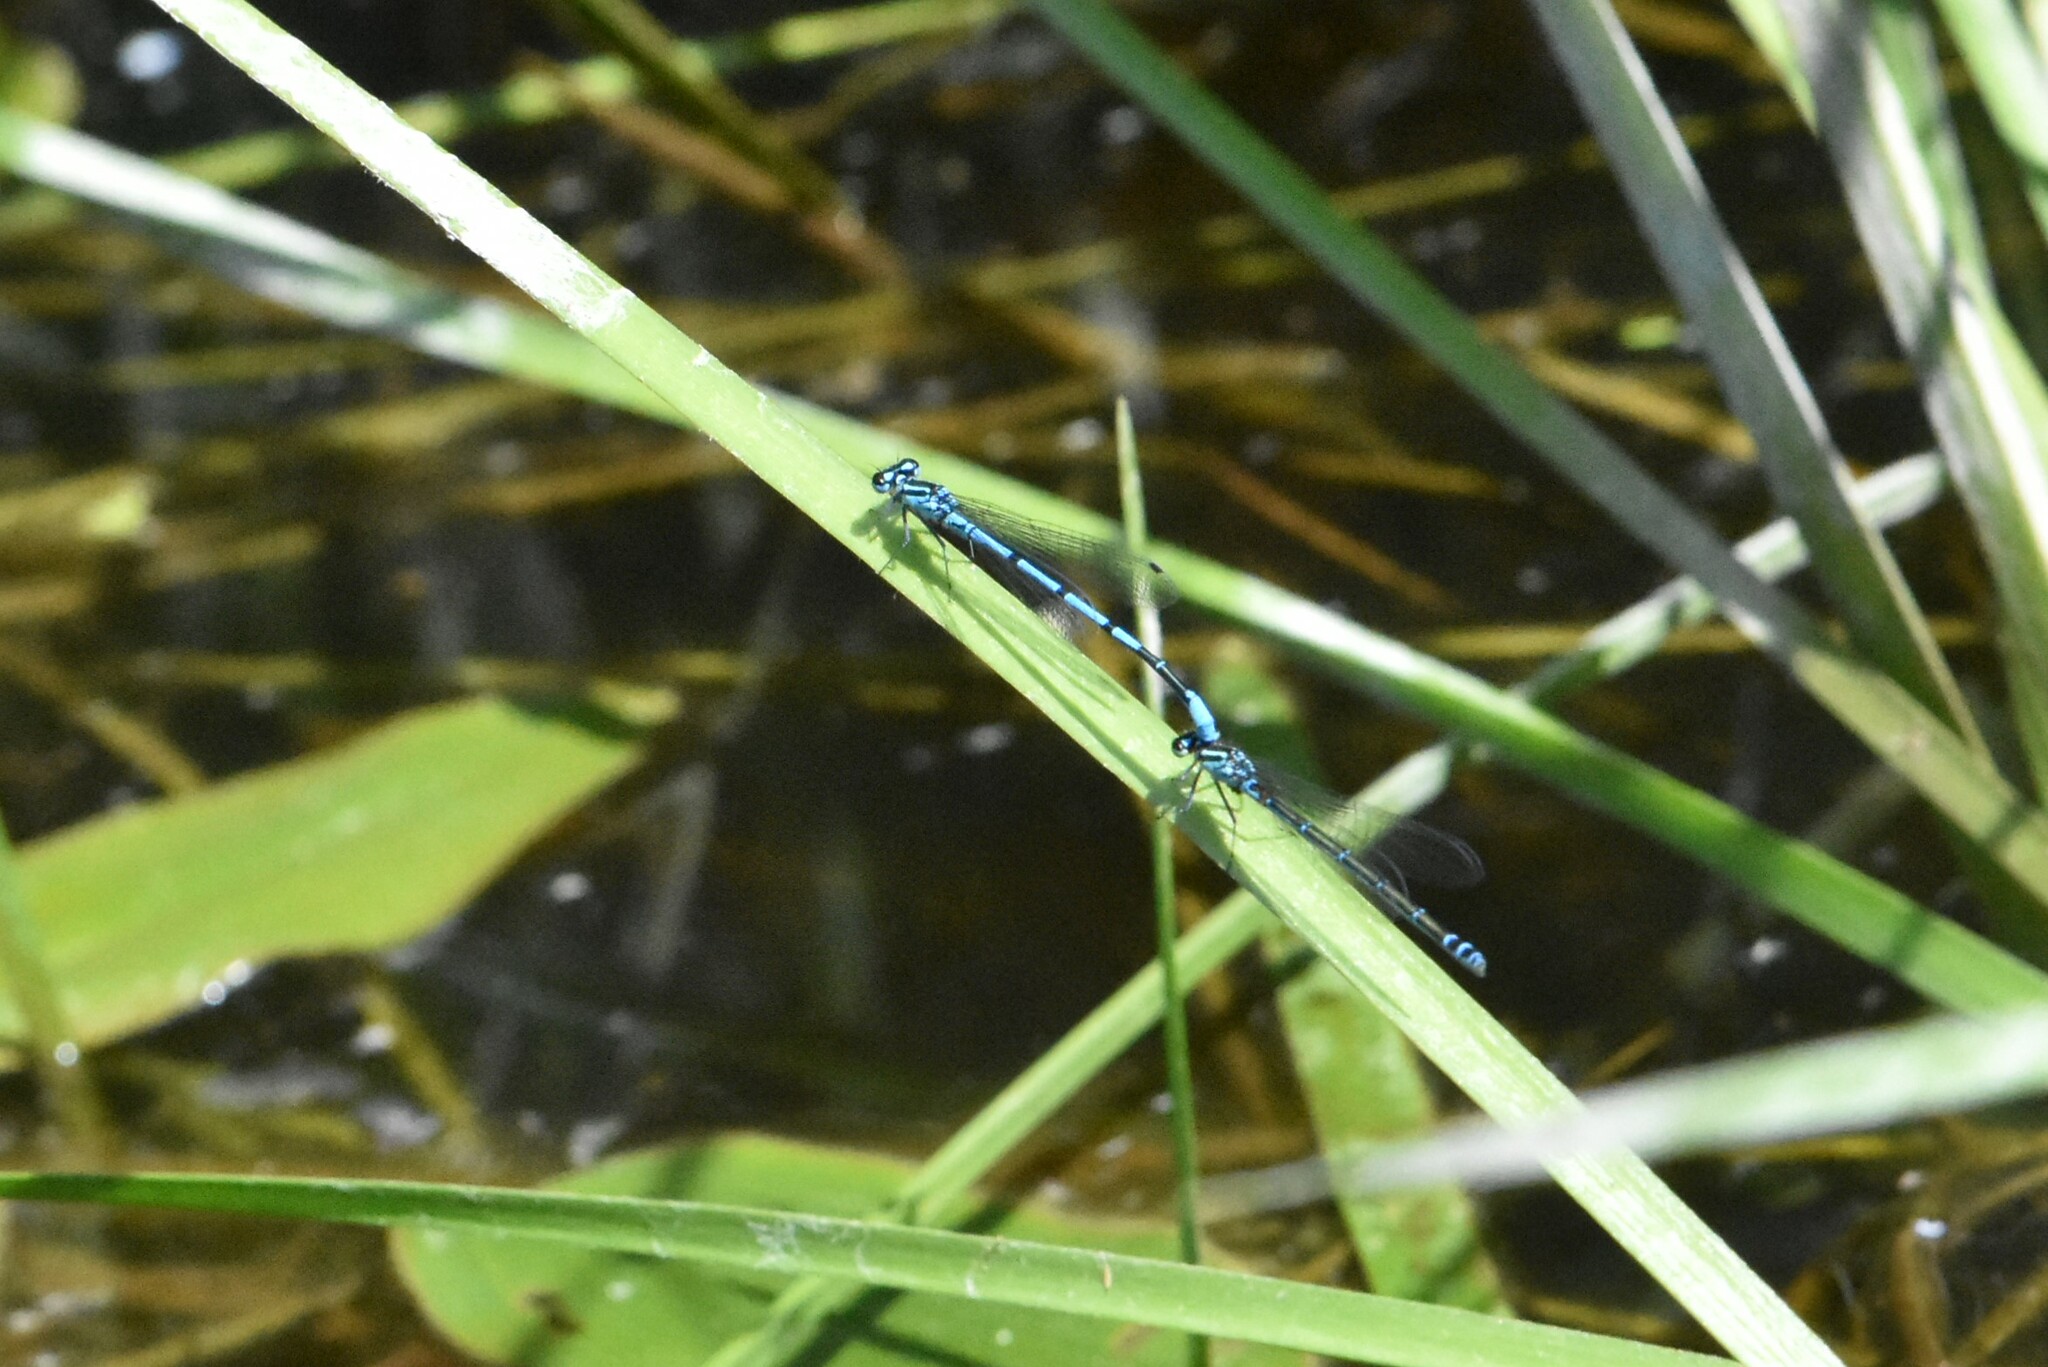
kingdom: Animalia
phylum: Arthropoda
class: Insecta
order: Odonata
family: Coenagrionidae
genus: Coenagrion
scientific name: Coenagrion puella
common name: Azure damselfly
